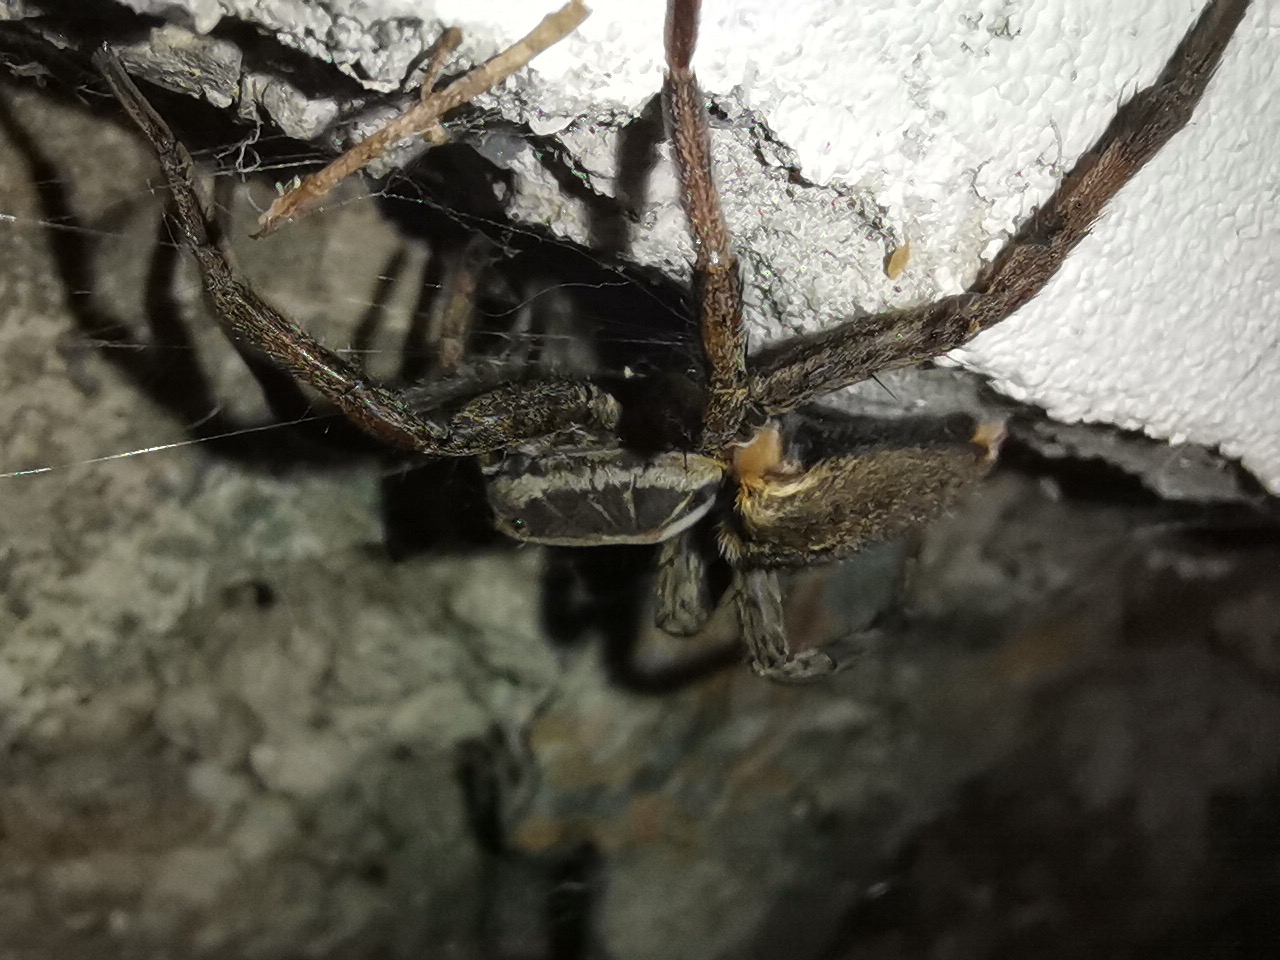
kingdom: Animalia
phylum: Arthropoda
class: Arachnida
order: Araneae
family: Lycosidae
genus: Hogna
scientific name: Hogna radiata
